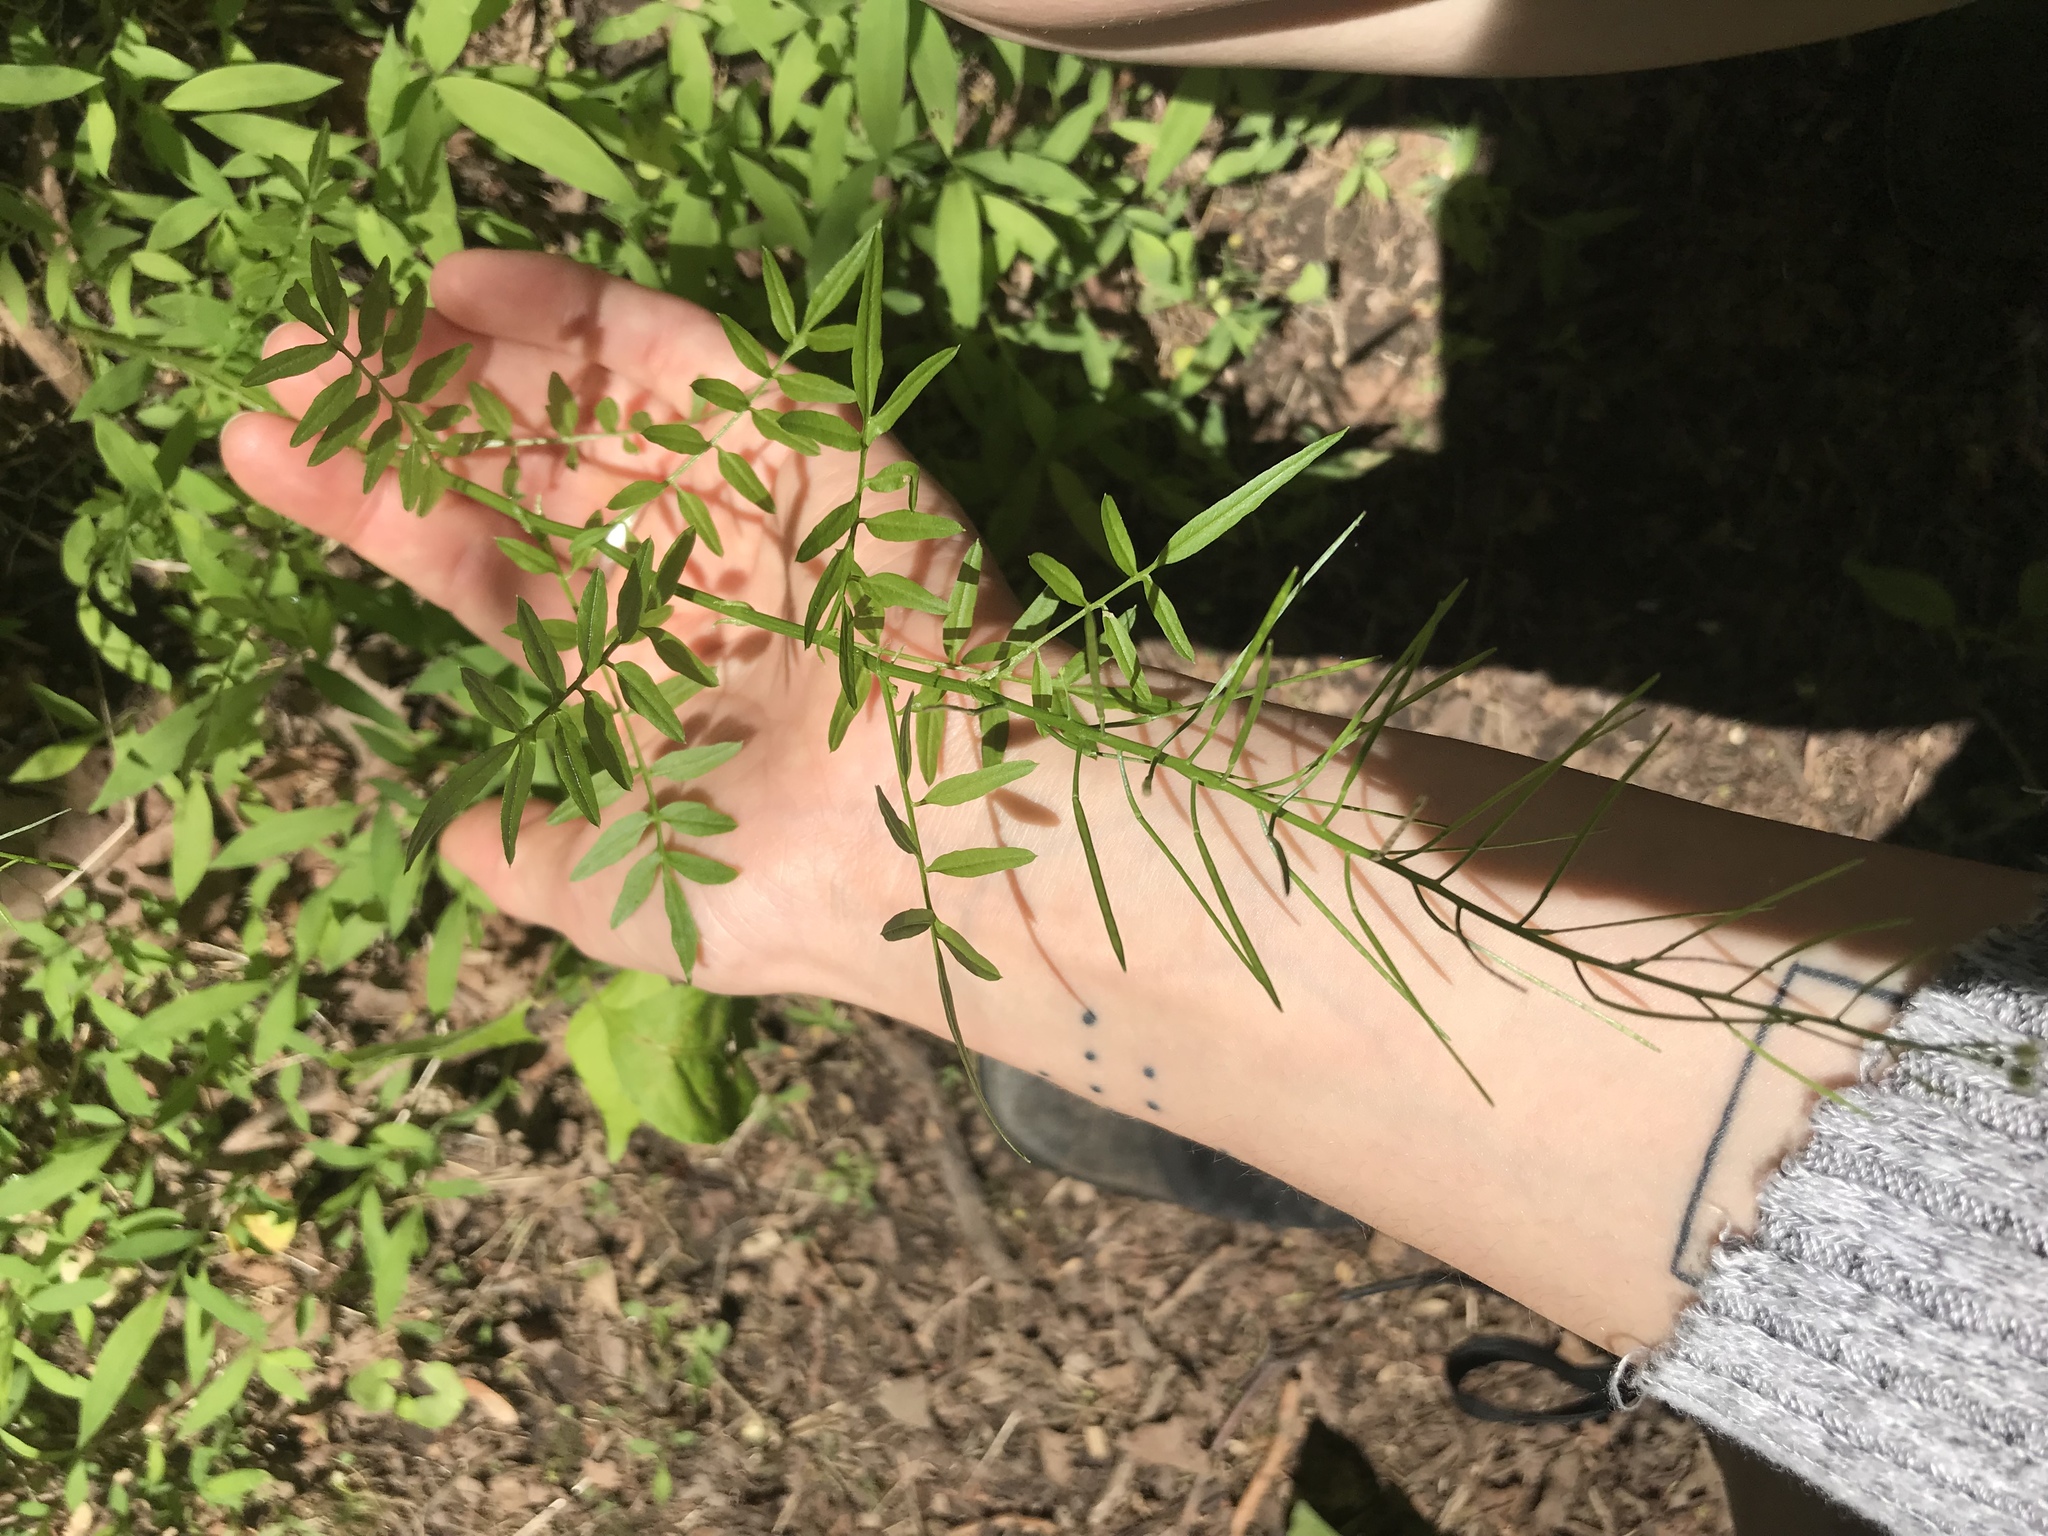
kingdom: Plantae
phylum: Tracheophyta
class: Magnoliopsida
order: Brassicales
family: Brassicaceae
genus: Cardamine
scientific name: Cardamine impatiens
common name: Narrow-leaved bitter-cress
